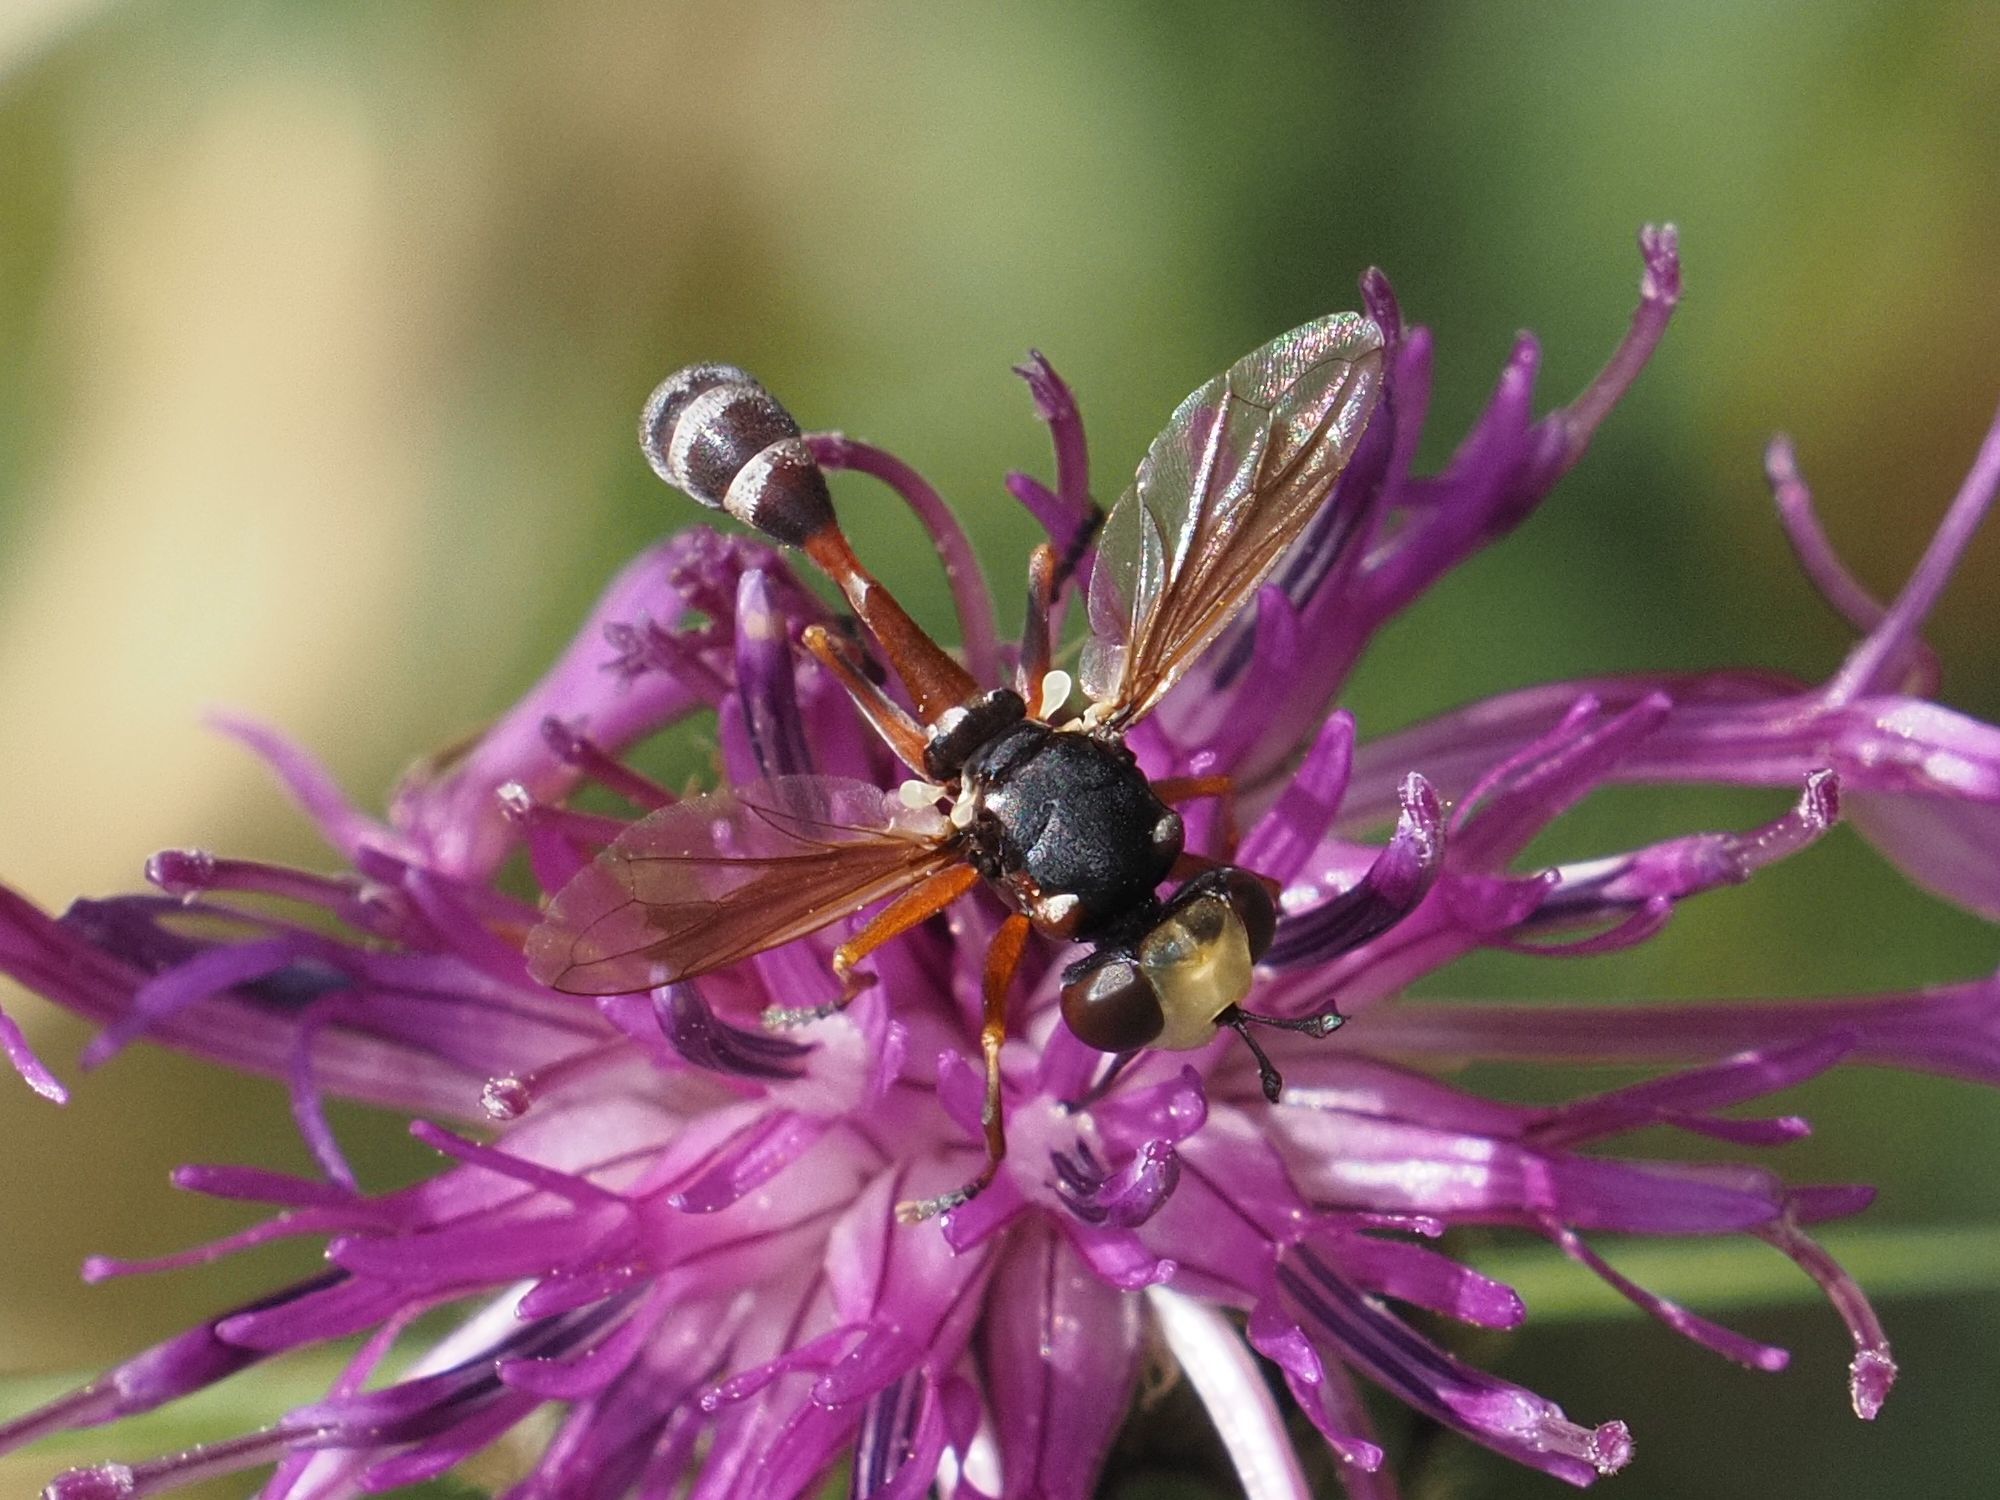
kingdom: Animalia
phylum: Arthropoda
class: Insecta
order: Diptera
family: Conopidae
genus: Physocephala
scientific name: Physocephala vittata
